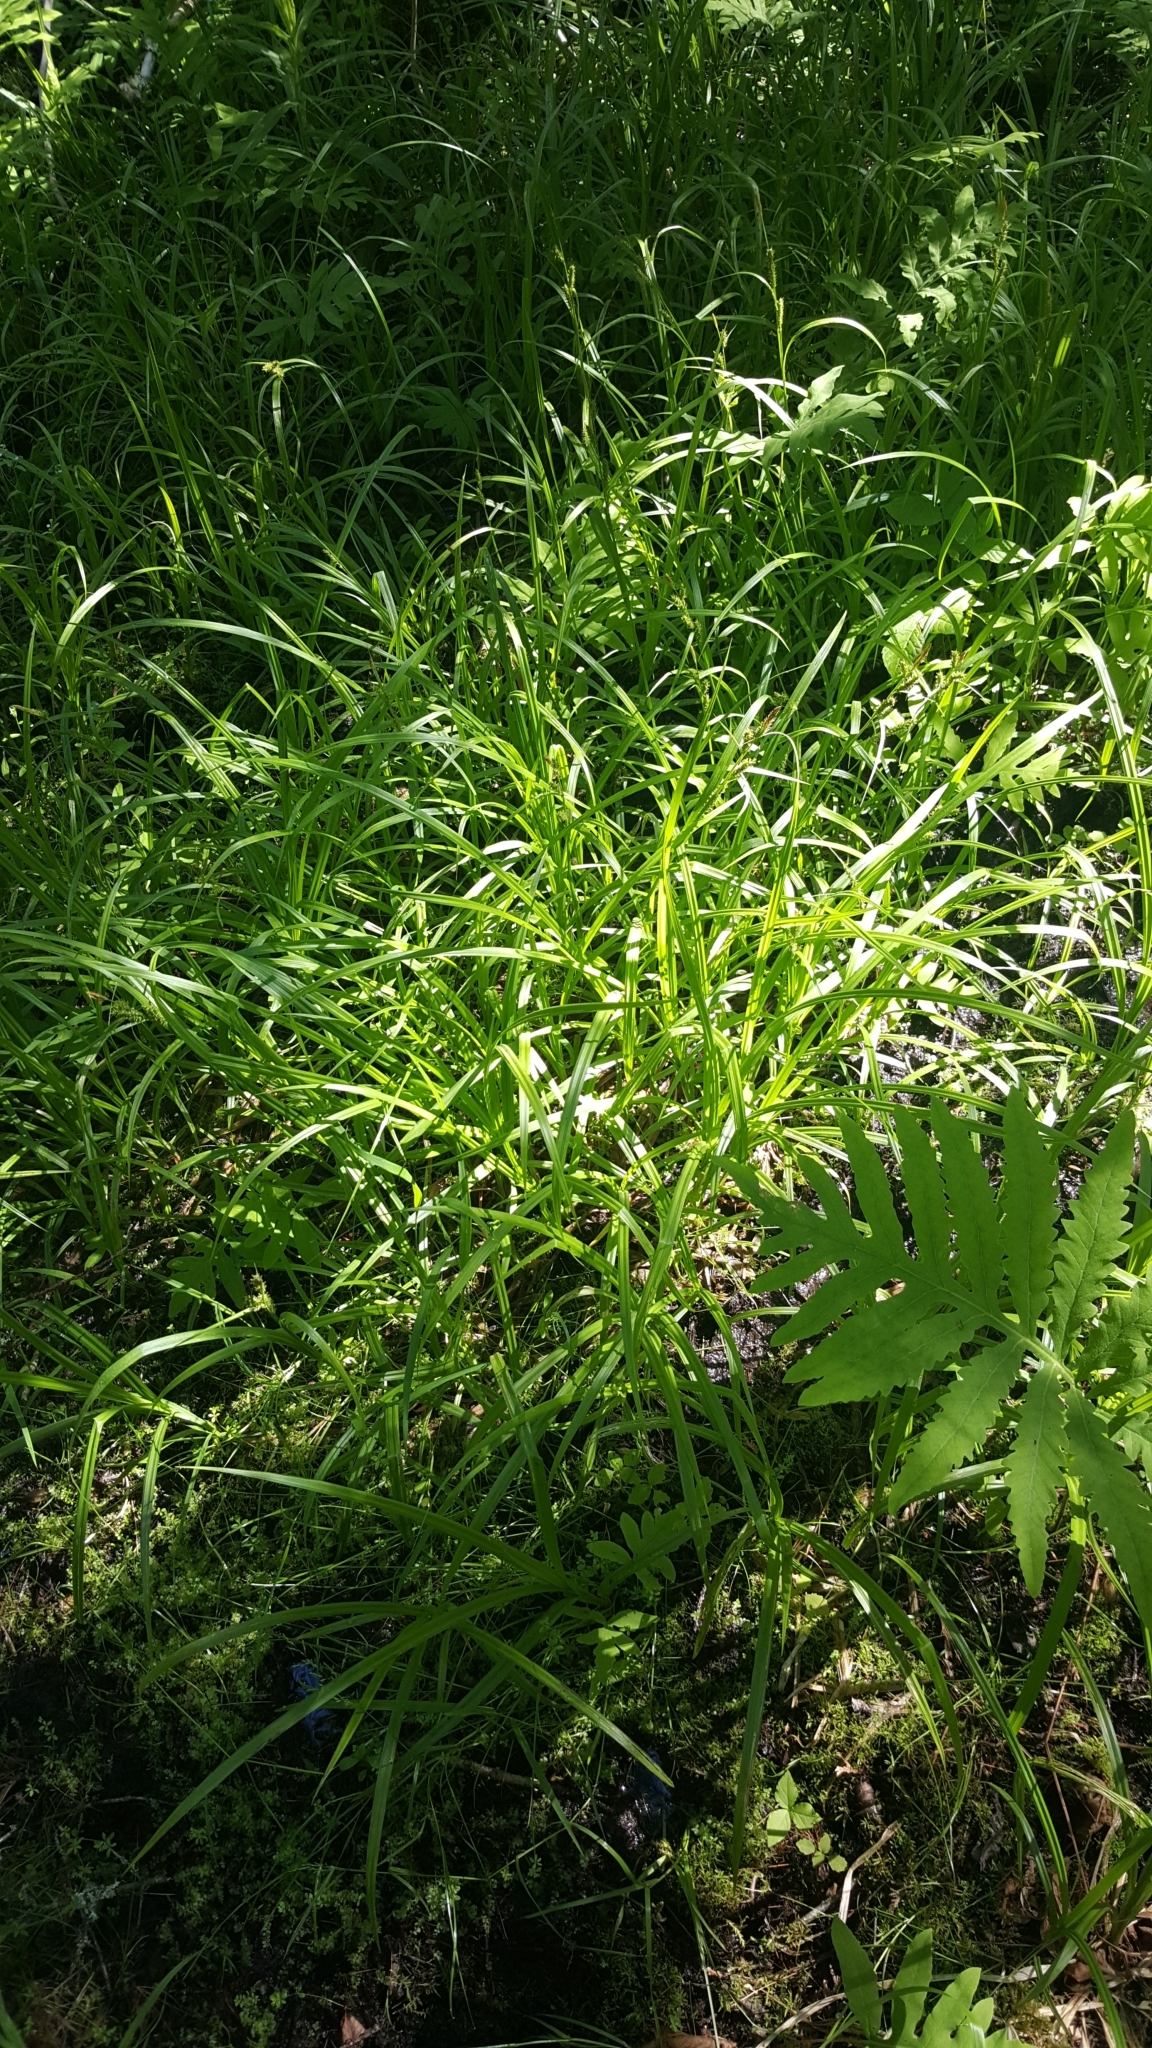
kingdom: Plantae
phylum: Tracheophyta
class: Liliopsida
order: Poales
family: Cyperaceae
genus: Carex
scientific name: Carex scabrata
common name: Eastern rough sedge
